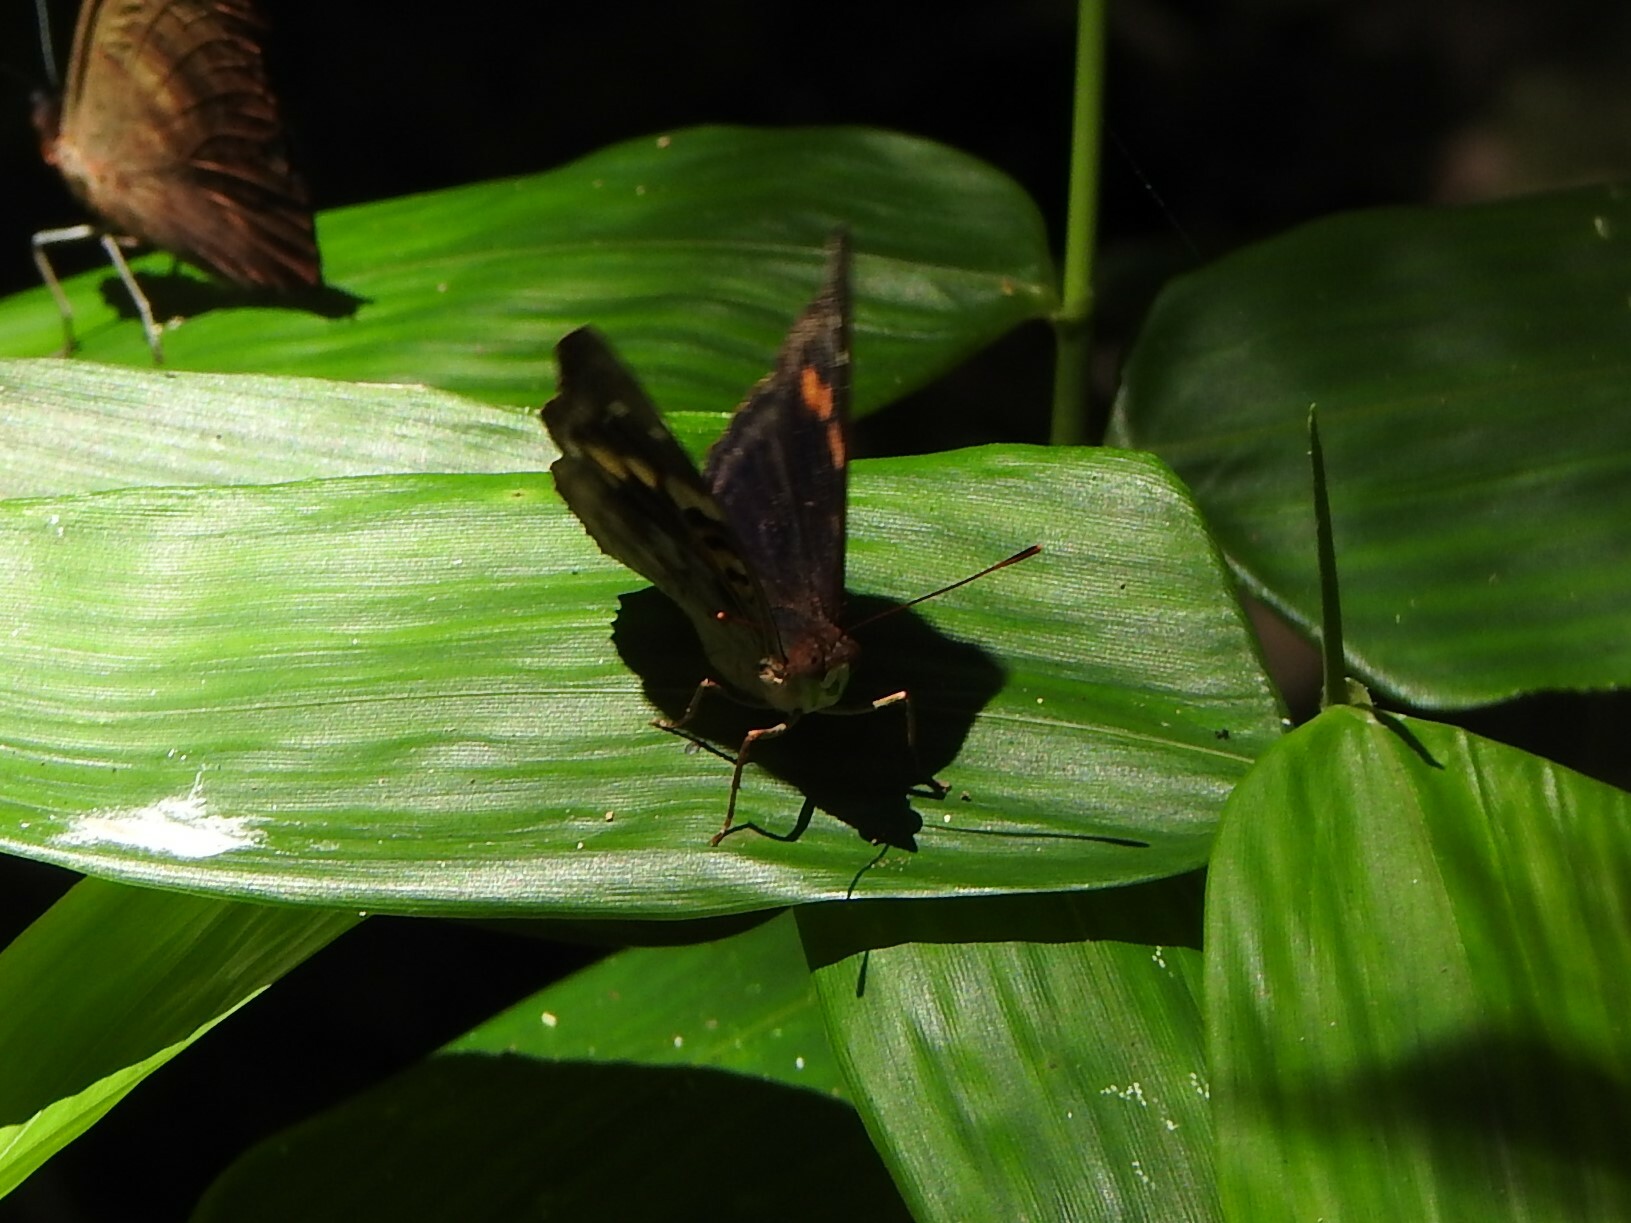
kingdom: Animalia
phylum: Arthropoda
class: Insecta
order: Lepidoptera
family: Nymphalidae
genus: Doxocopa
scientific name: Doxocopa agathina
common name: Agathina emperor
